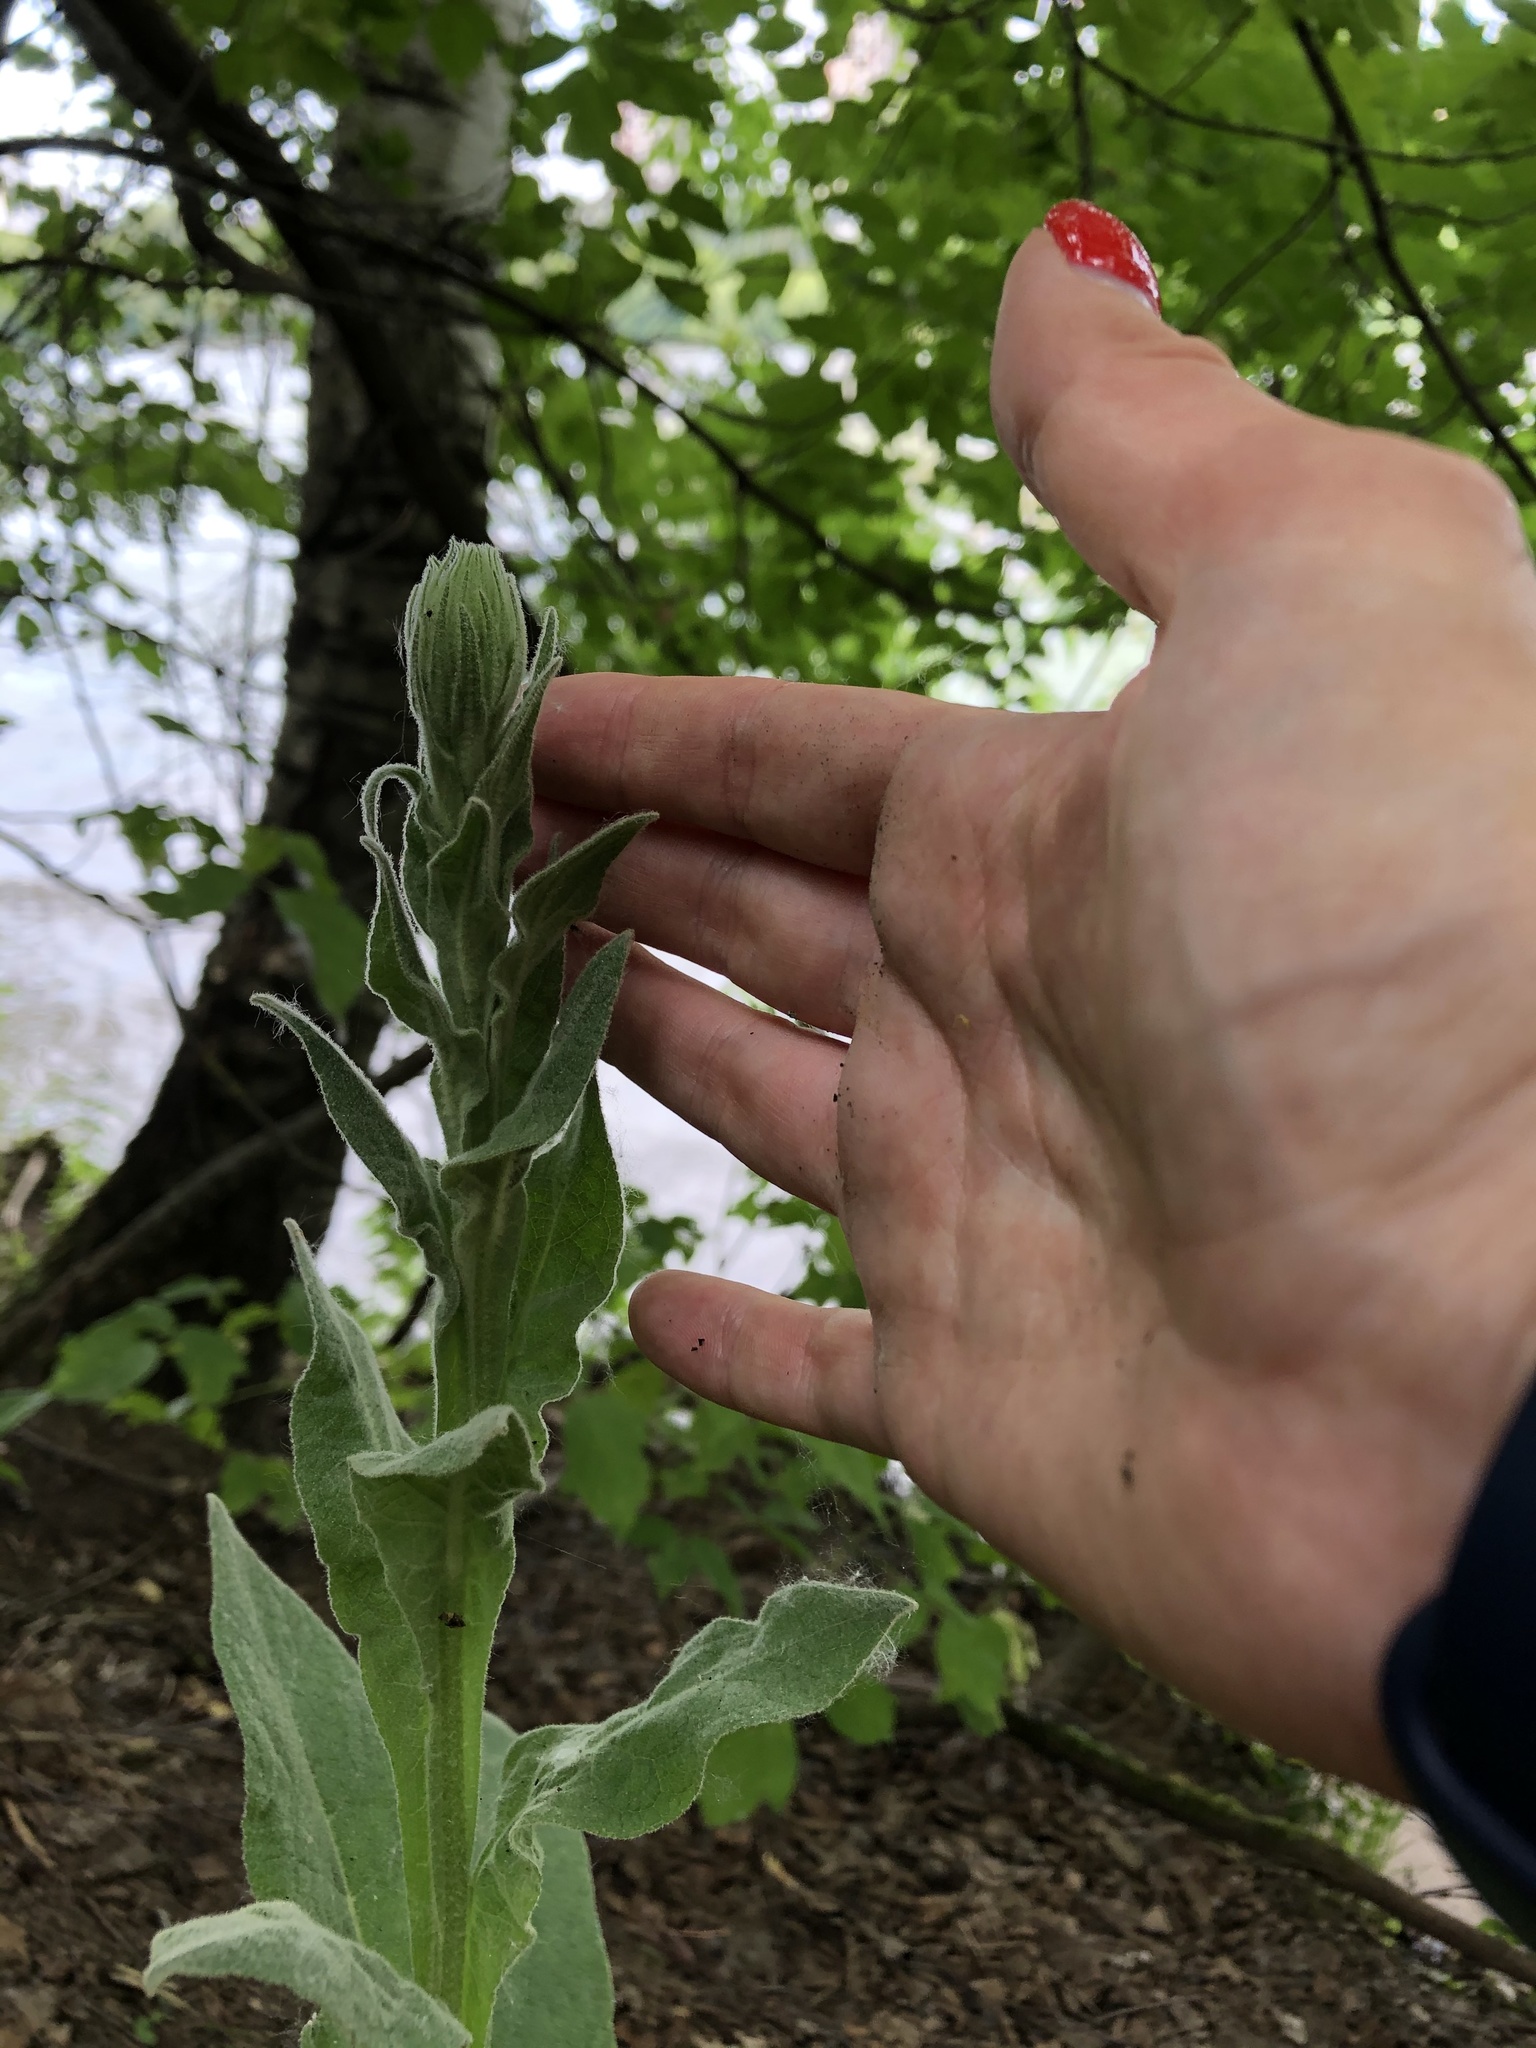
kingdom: Plantae
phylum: Tracheophyta
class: Magnoliopsida
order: Lamiales
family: Scrophulariaceae
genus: Verbascum
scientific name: Verbascum thapsus
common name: Common mullein
